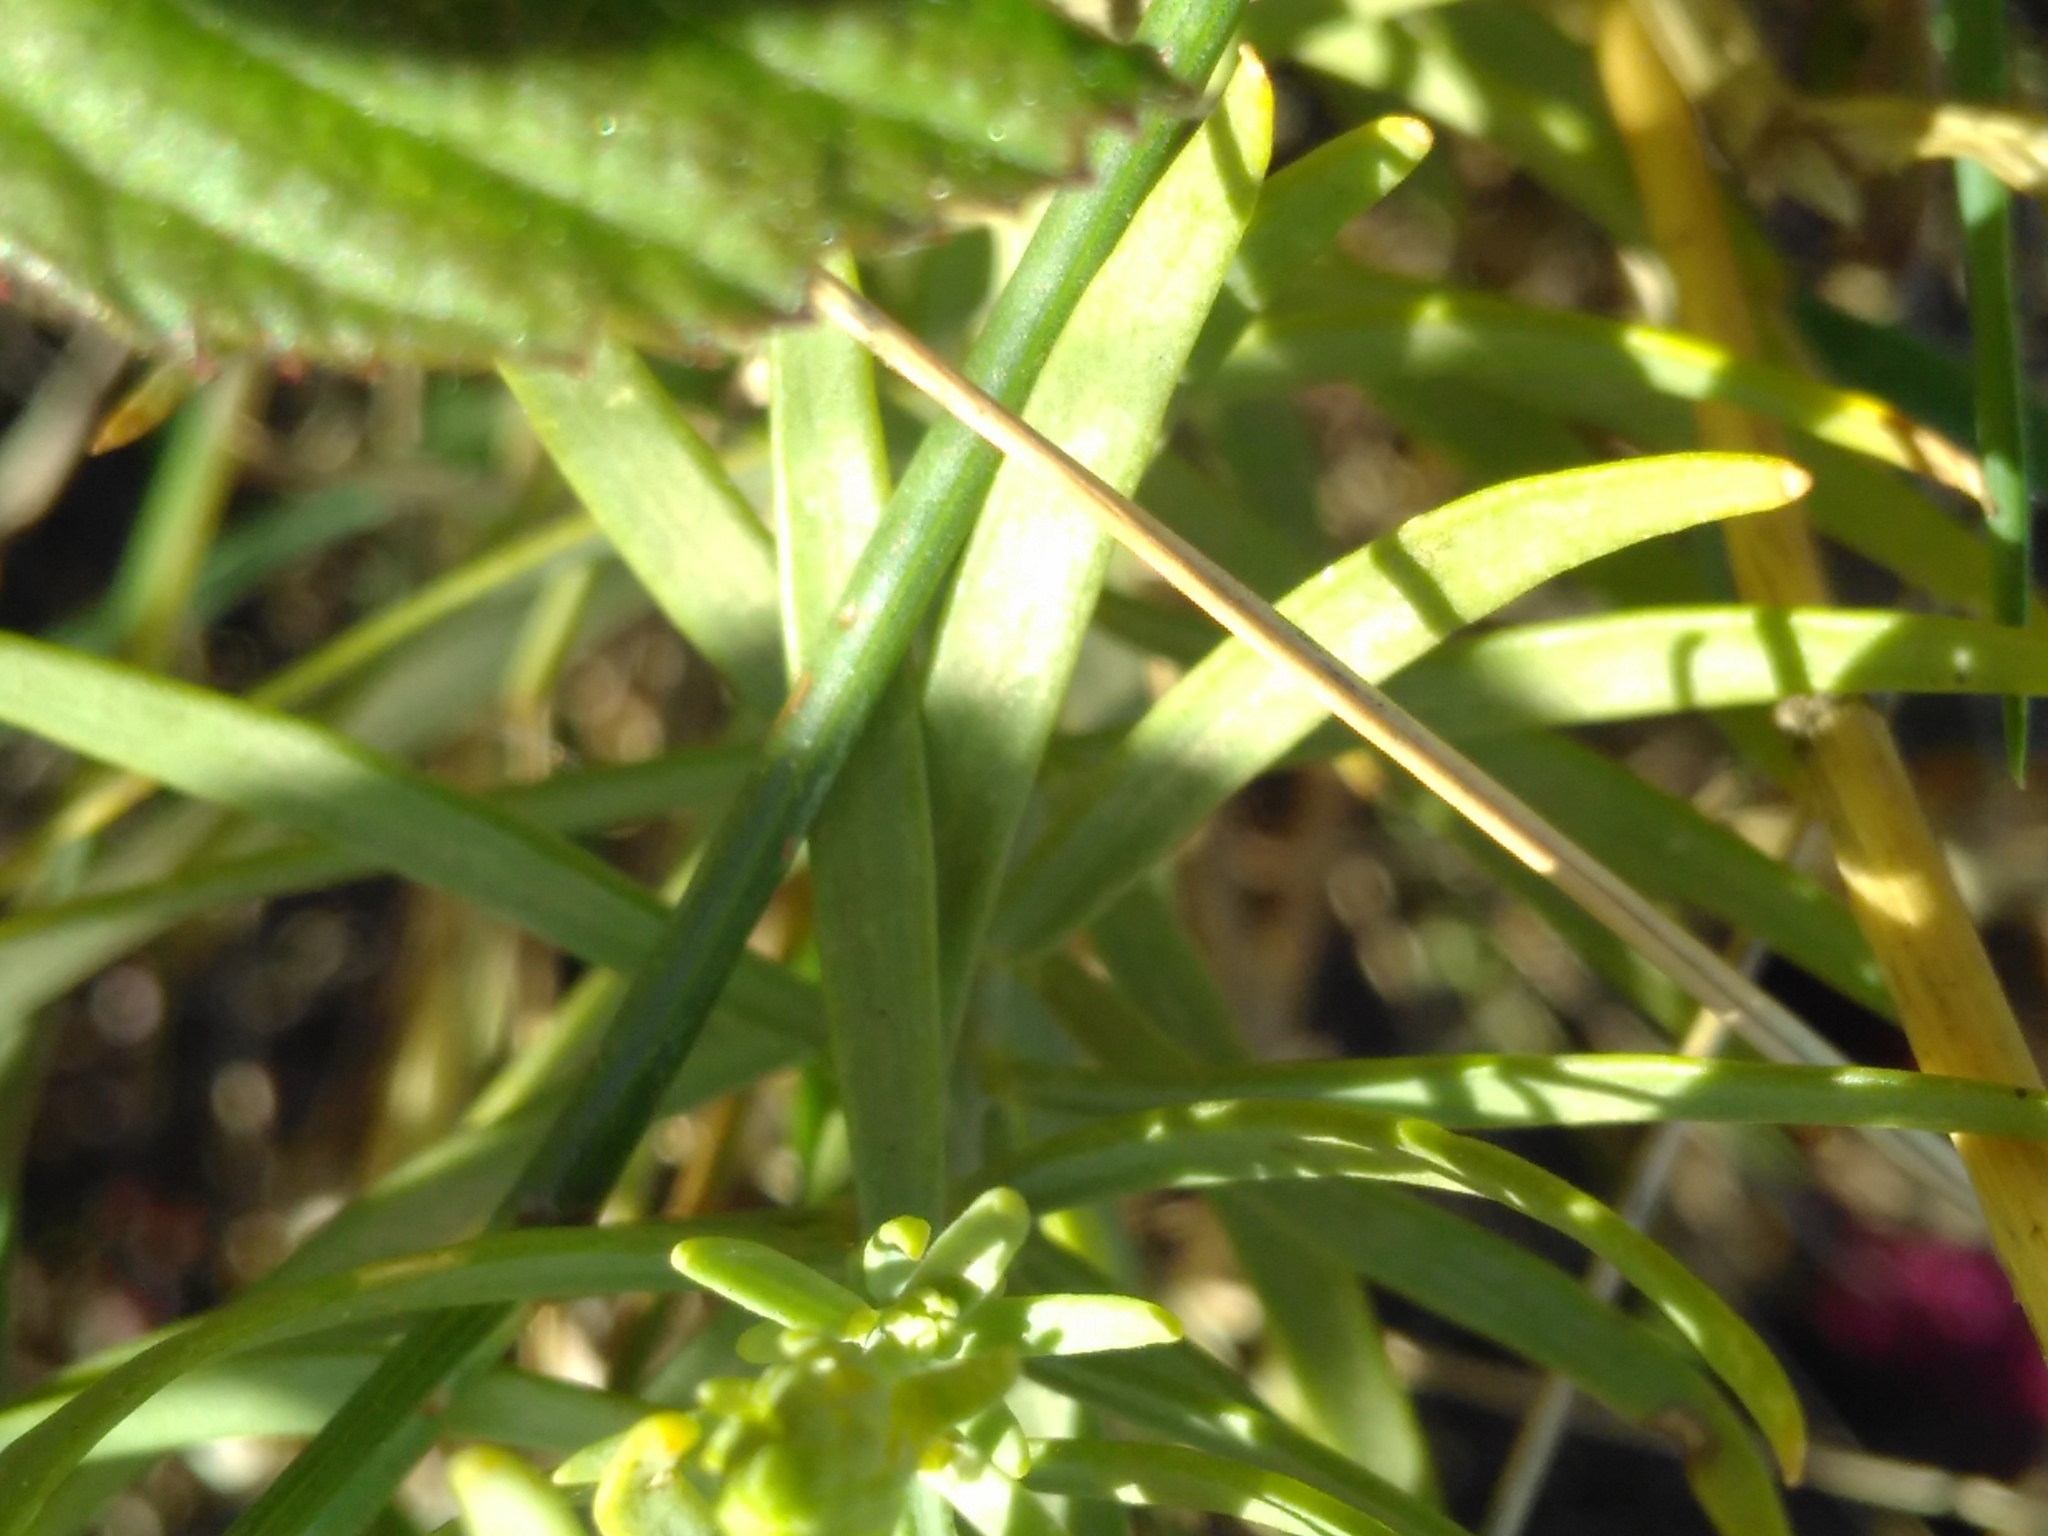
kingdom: Plantae
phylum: Tracheophyta
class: Magnoliopsida
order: Lamiales
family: Plantaginaceae
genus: Linaria
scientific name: Linaria angustissima
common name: Italian toadflax
